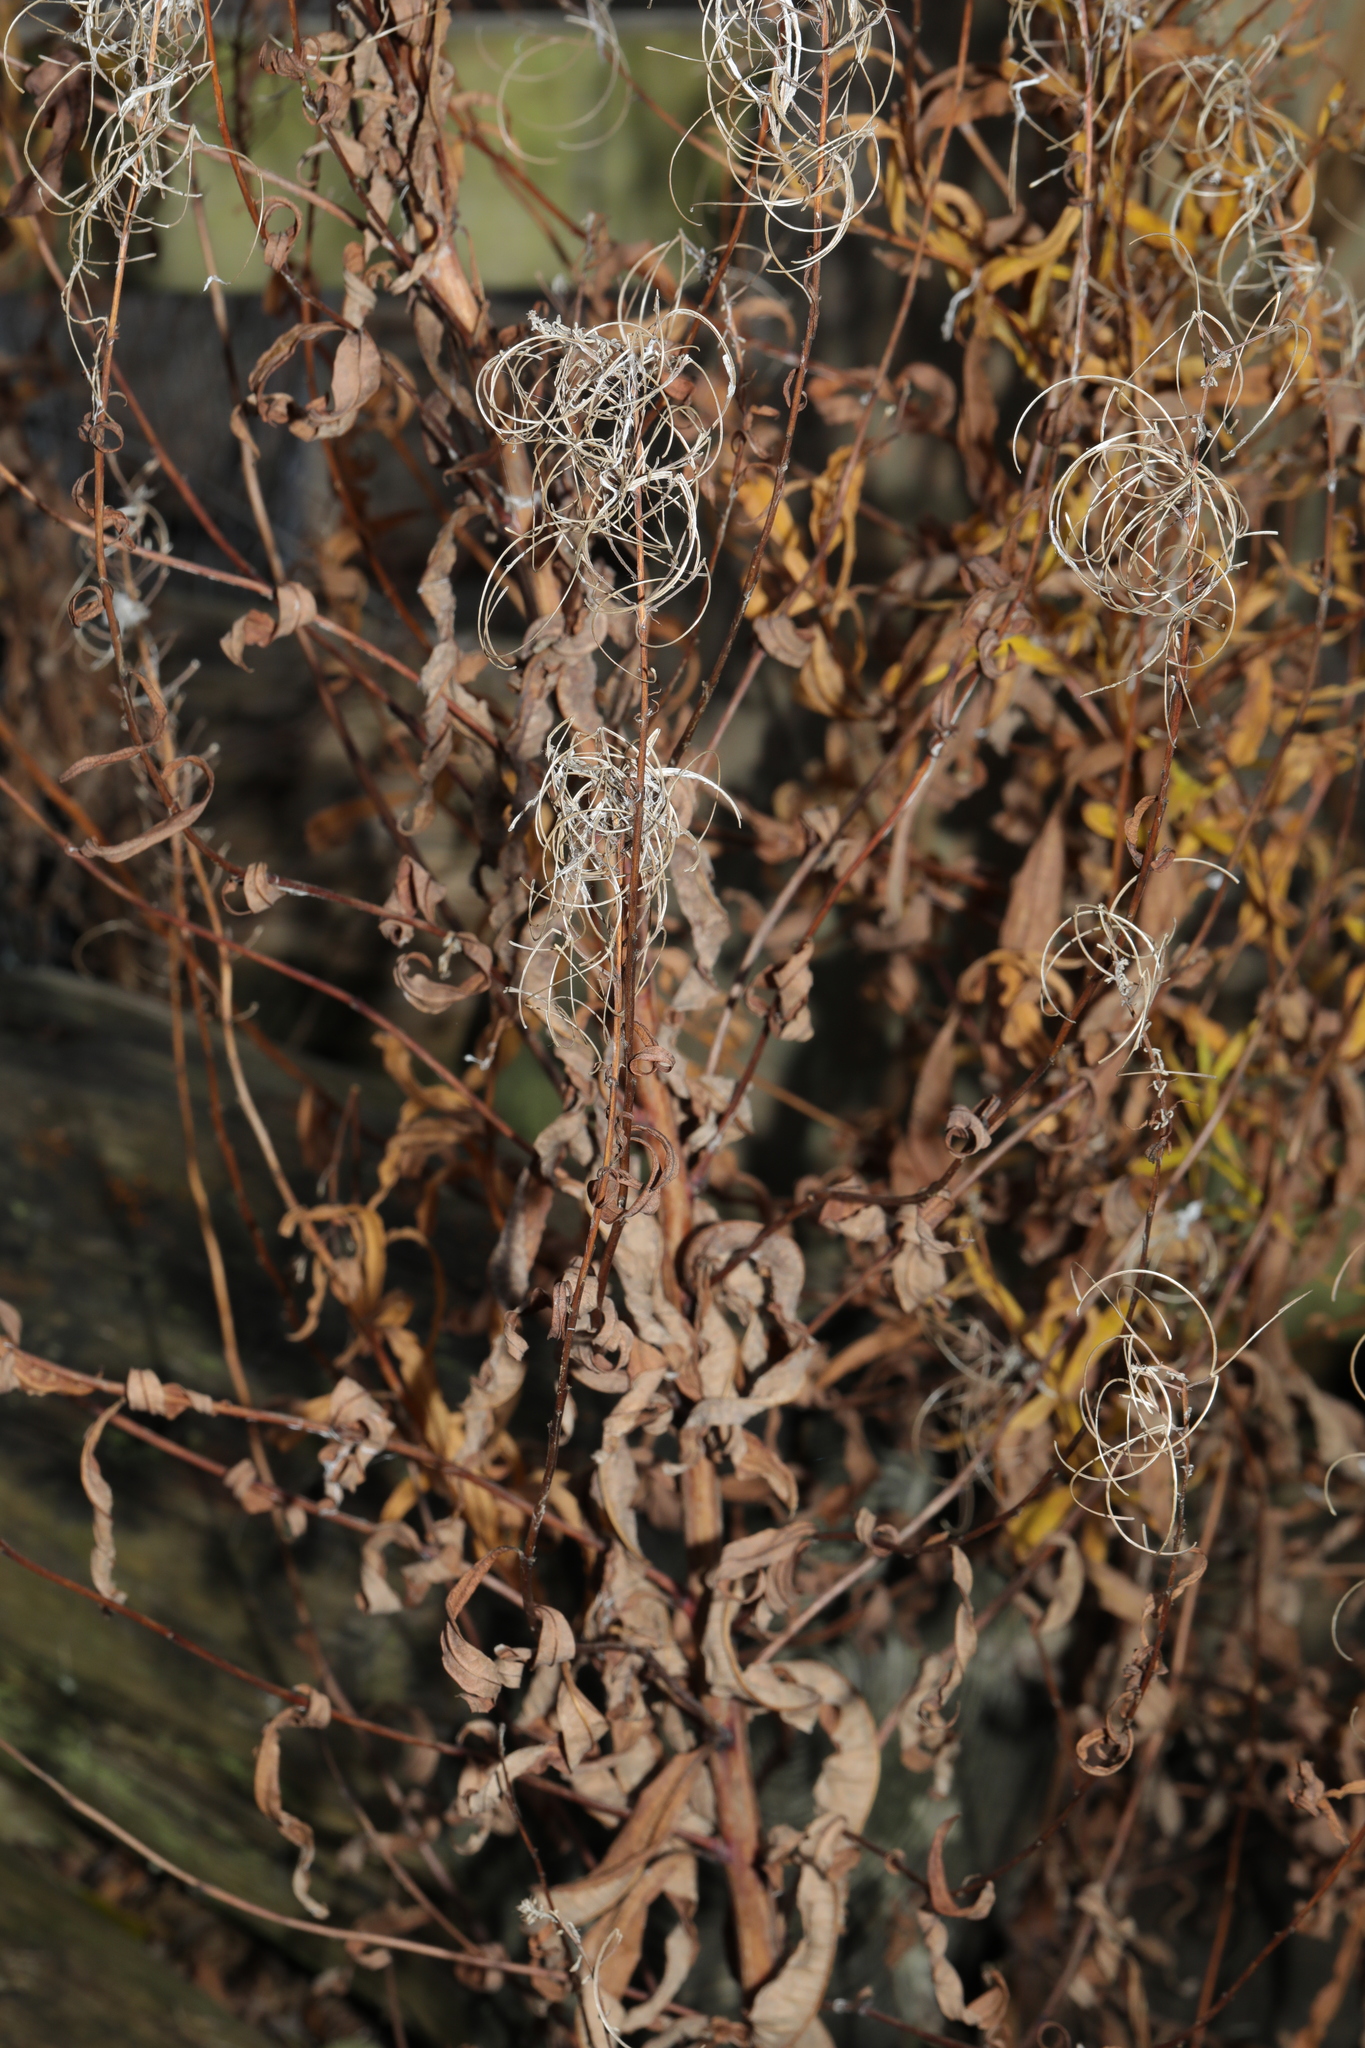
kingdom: Plantae
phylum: Tracheophyta
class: Magnoliopsida
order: Myrtales
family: Onagraceae
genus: Chamaenerion
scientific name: Chamaenerion angustifolium
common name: Fireweed
